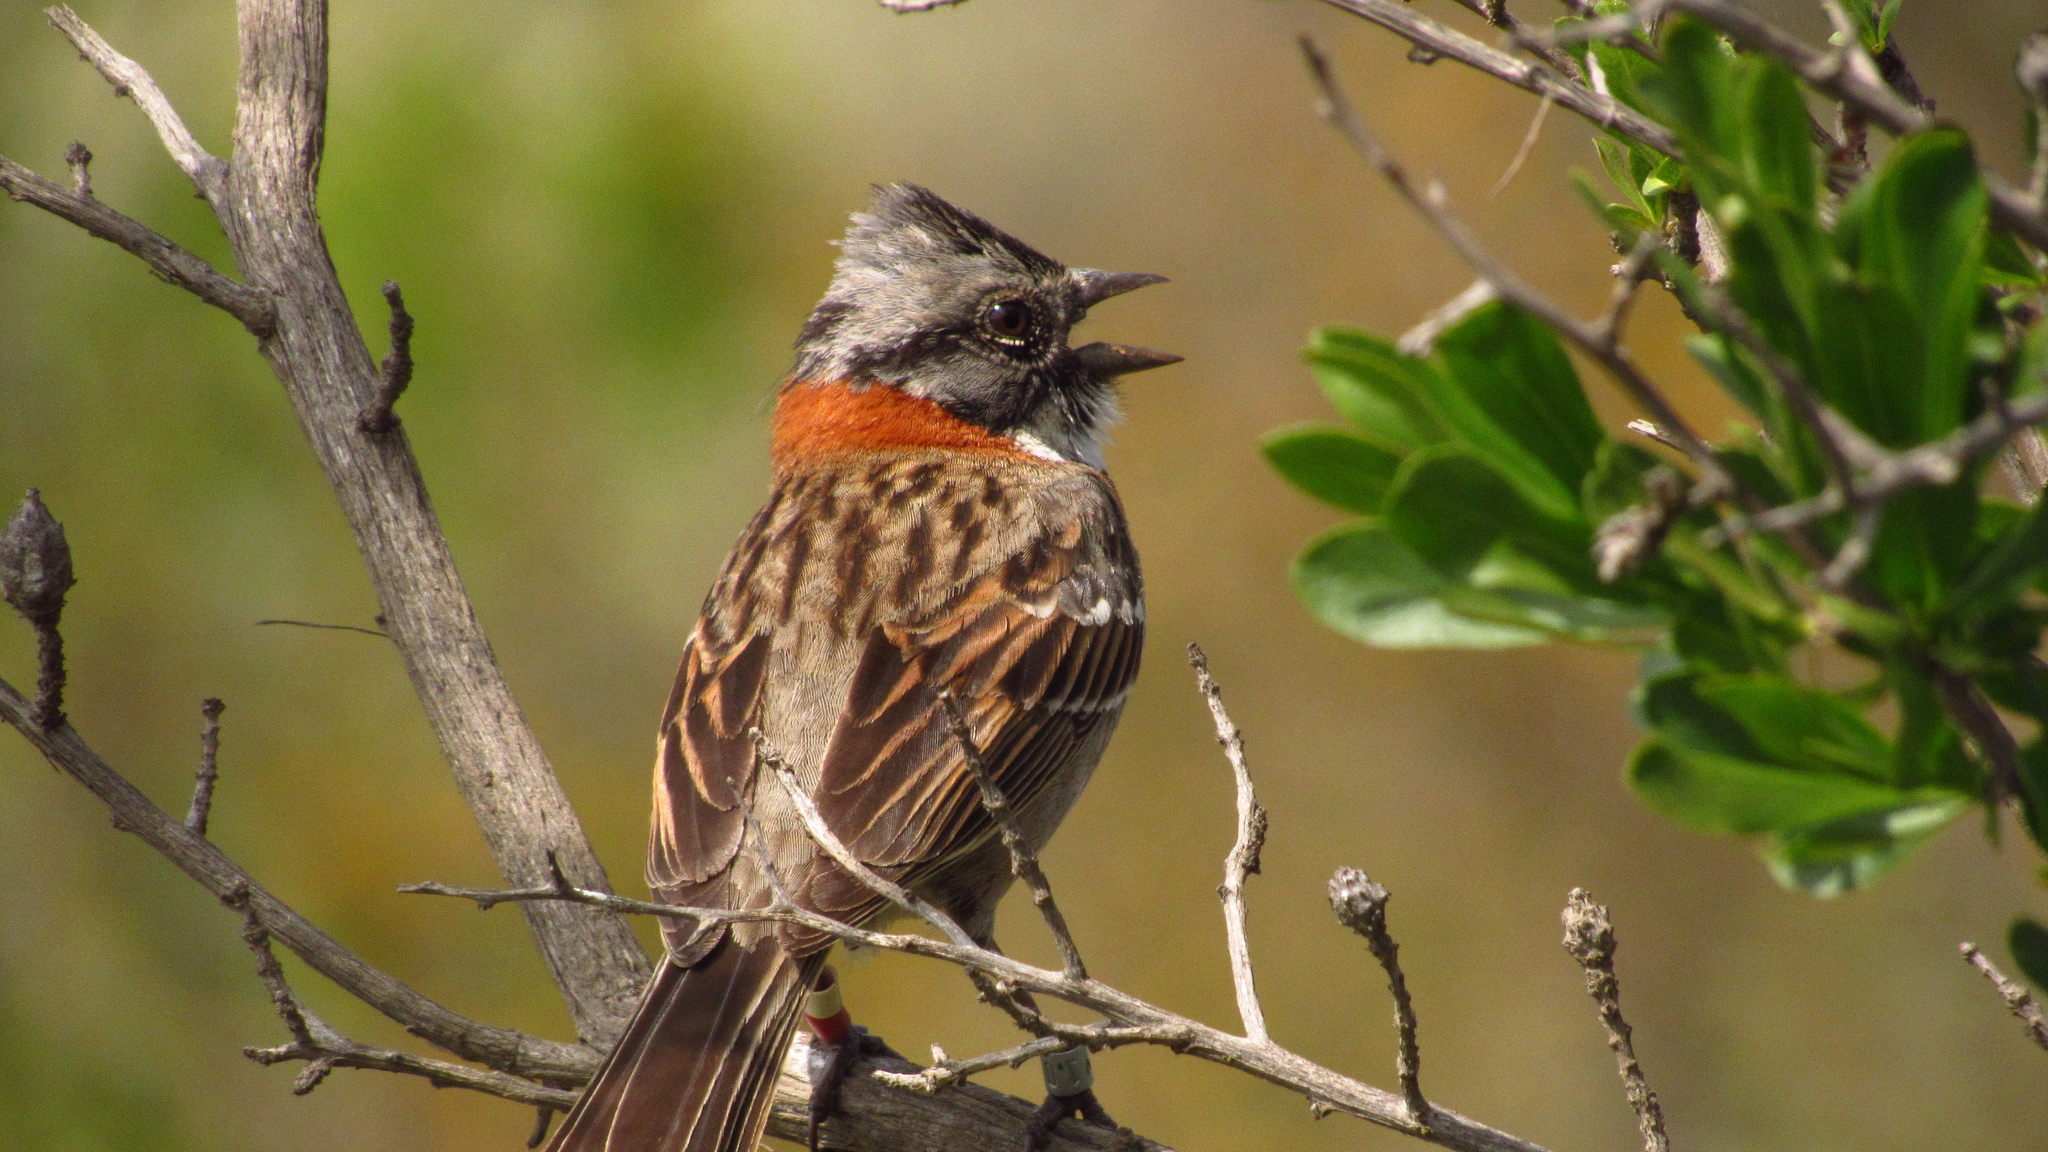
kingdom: Animalia
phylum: Chordata
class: Aves
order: Passeriformes
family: Passerellidae
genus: Zonotrichia
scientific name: Zonotrichia capensis
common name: Rufous-collared sparrow
